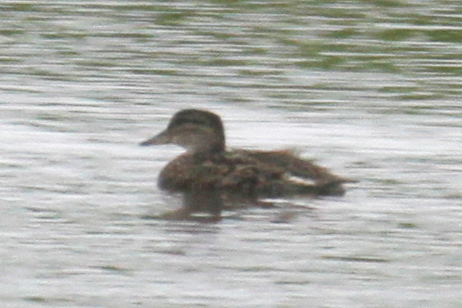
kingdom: Animalia
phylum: Chordata
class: Aves
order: Anseriformes
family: Anatidae
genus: Anas
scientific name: Anas crecca
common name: Eurasian teal
